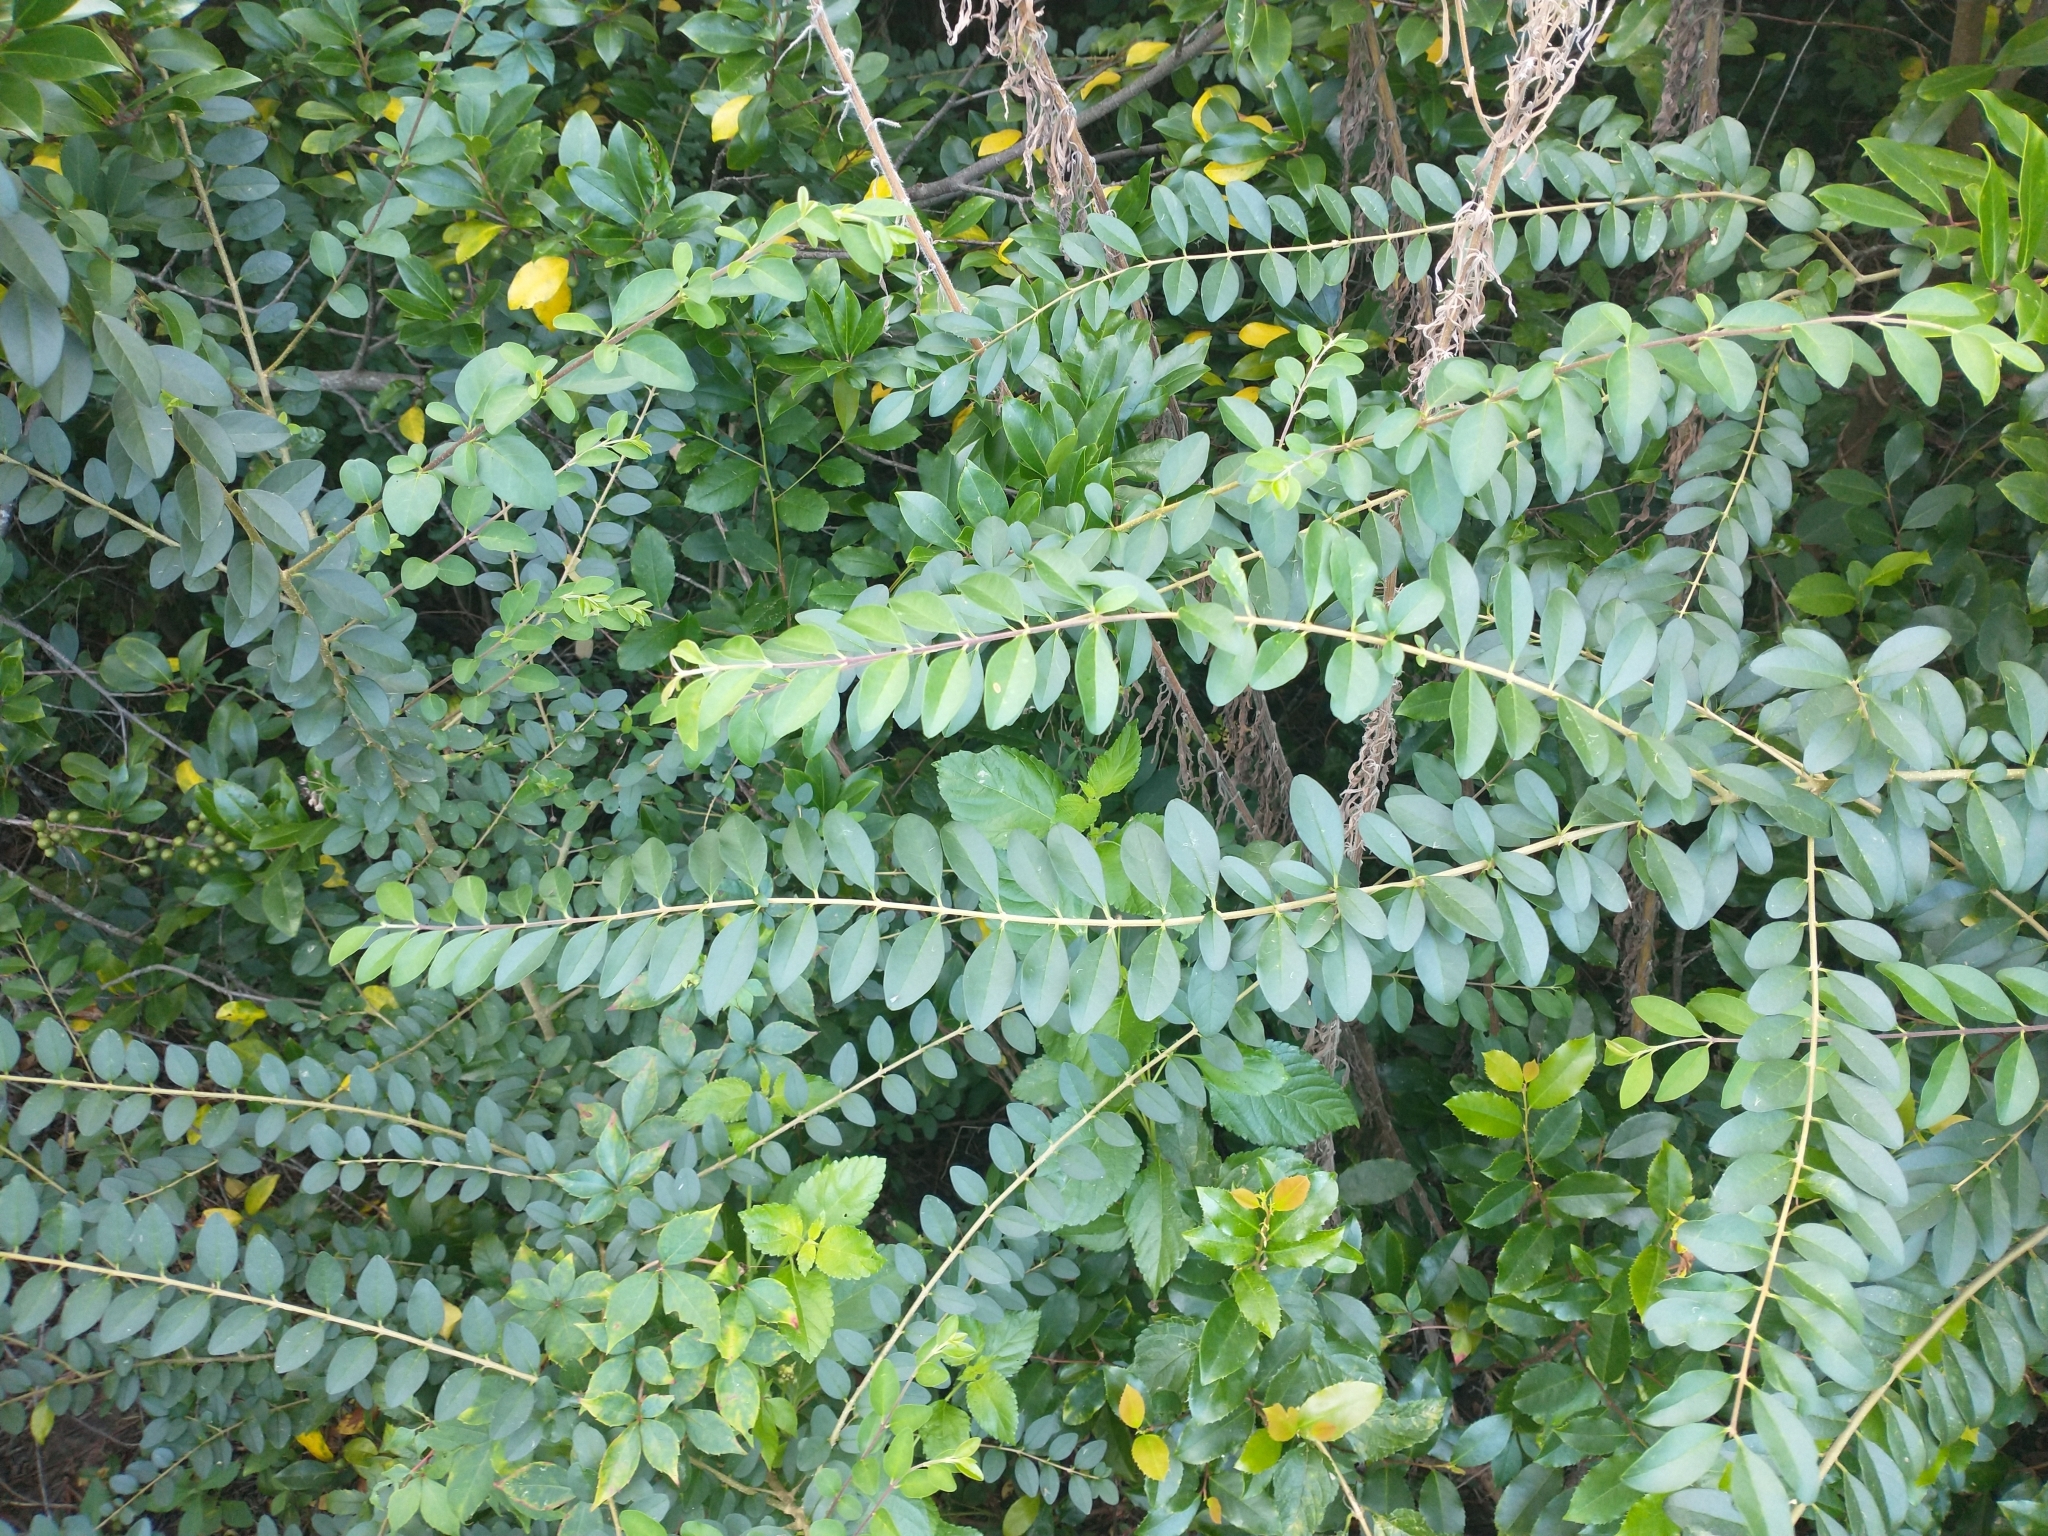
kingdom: Plantae
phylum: Tracheophyta
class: Magnoliopsida
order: Lamiales
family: Oleaceae
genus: Ligustrum
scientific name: Ligustrum sinense
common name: Chinese privet
